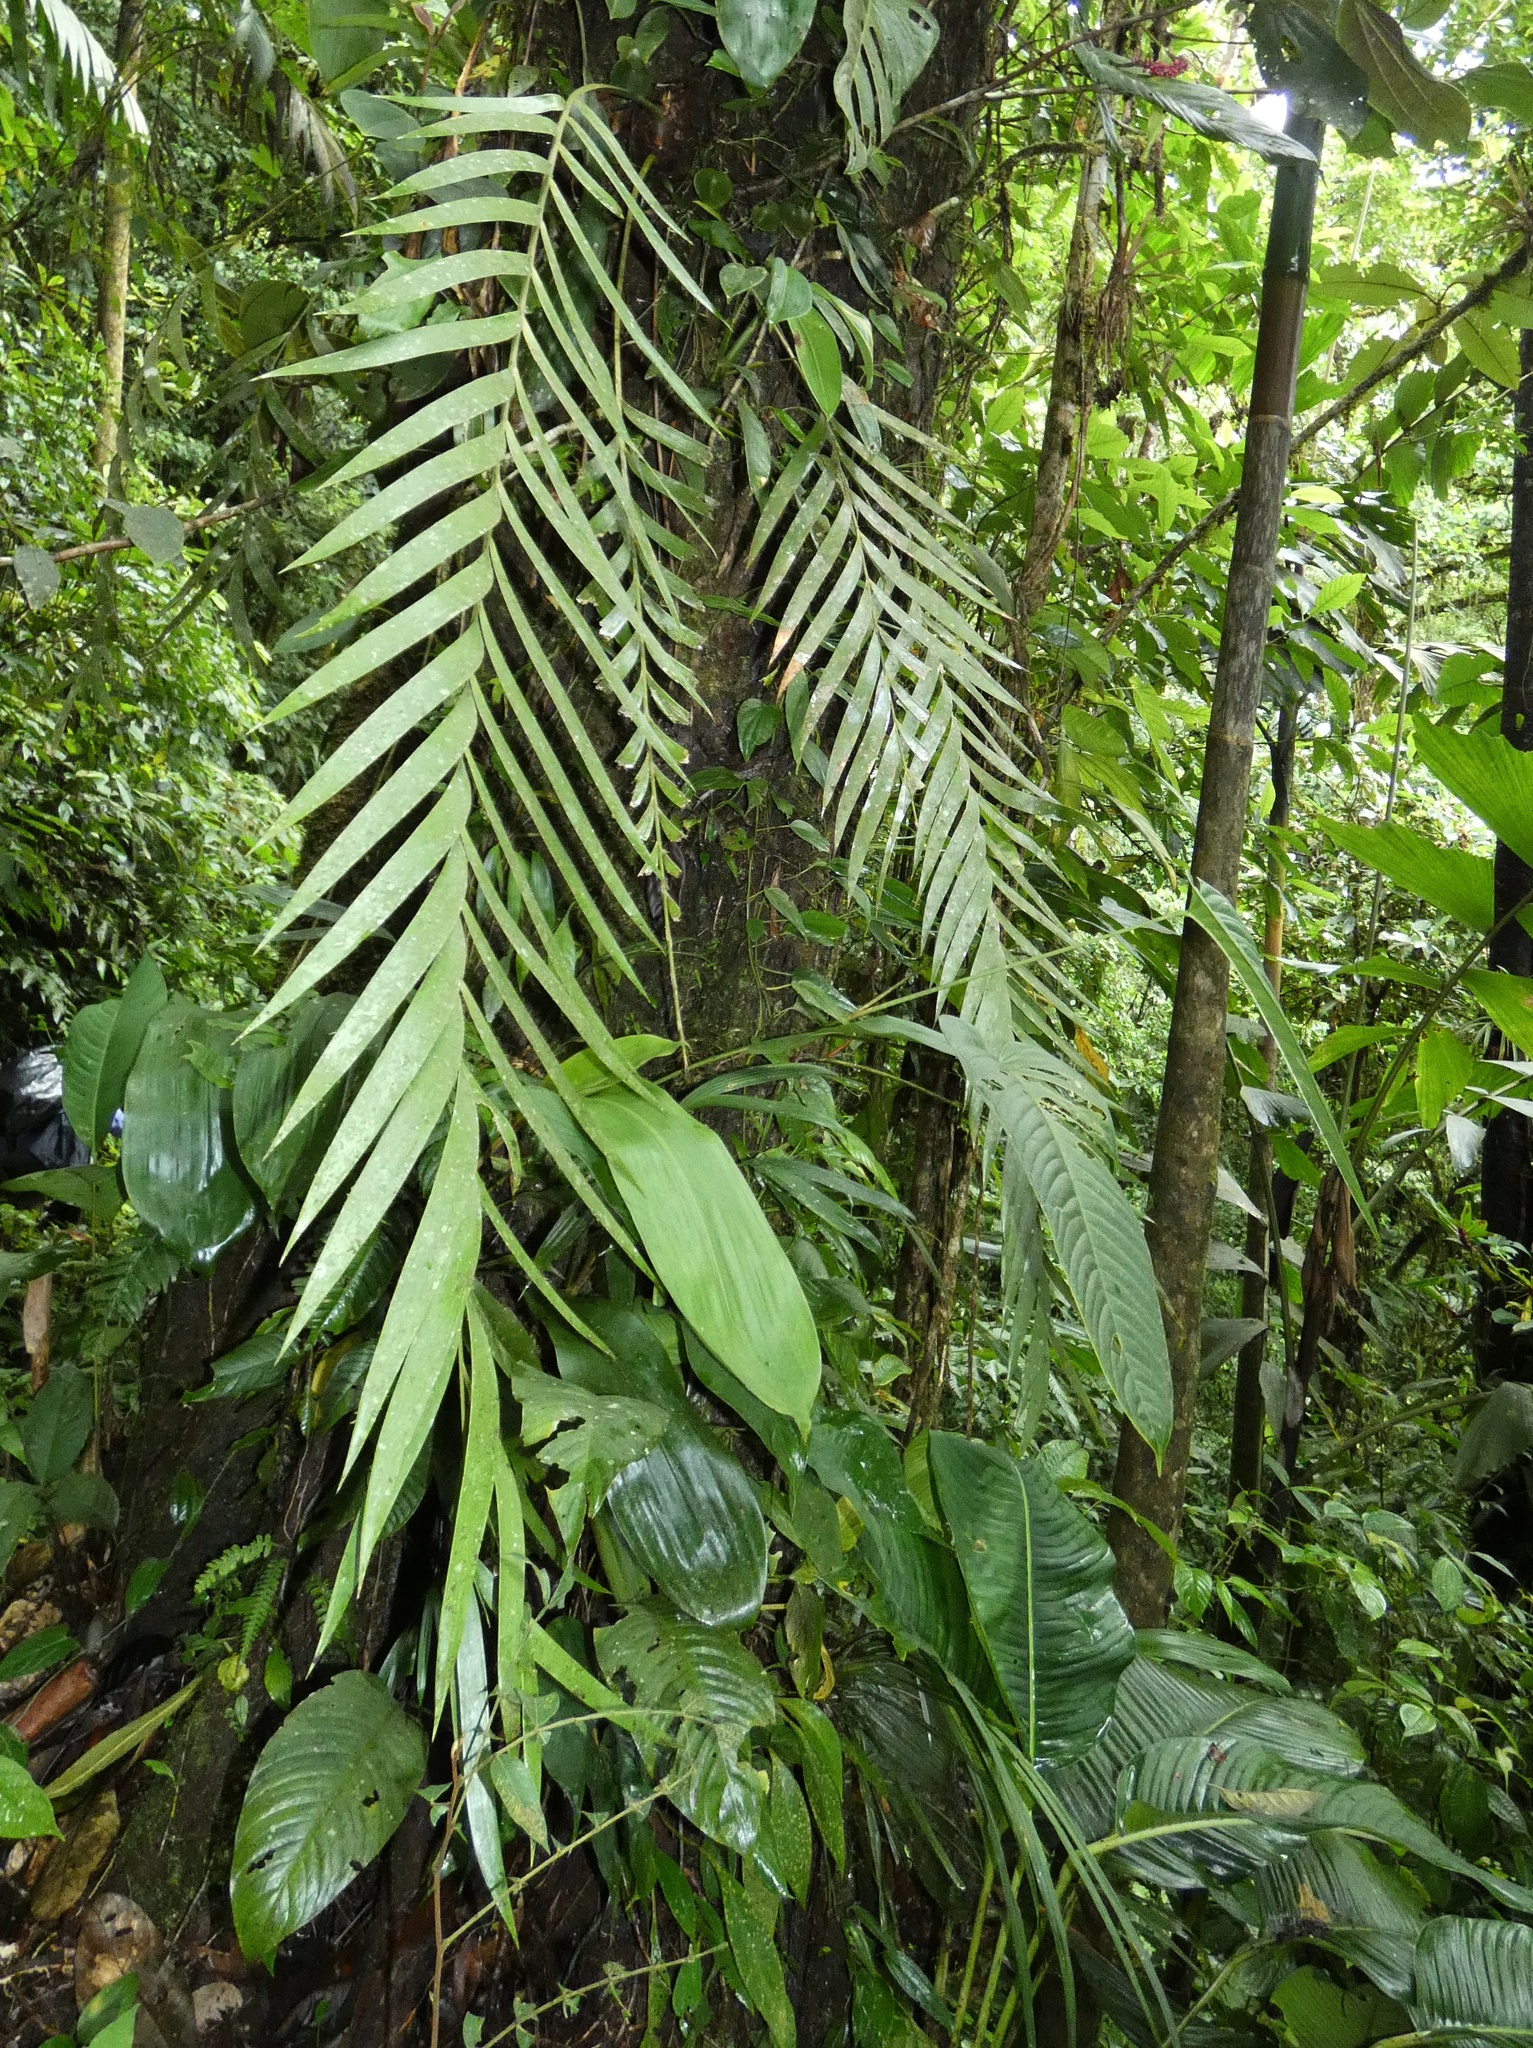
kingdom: Plantae
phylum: Tracheophyta
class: Cycadopsida
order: Cycadales
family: Zamiaceae
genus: Zamia
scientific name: Zamia pseudoparasitica
